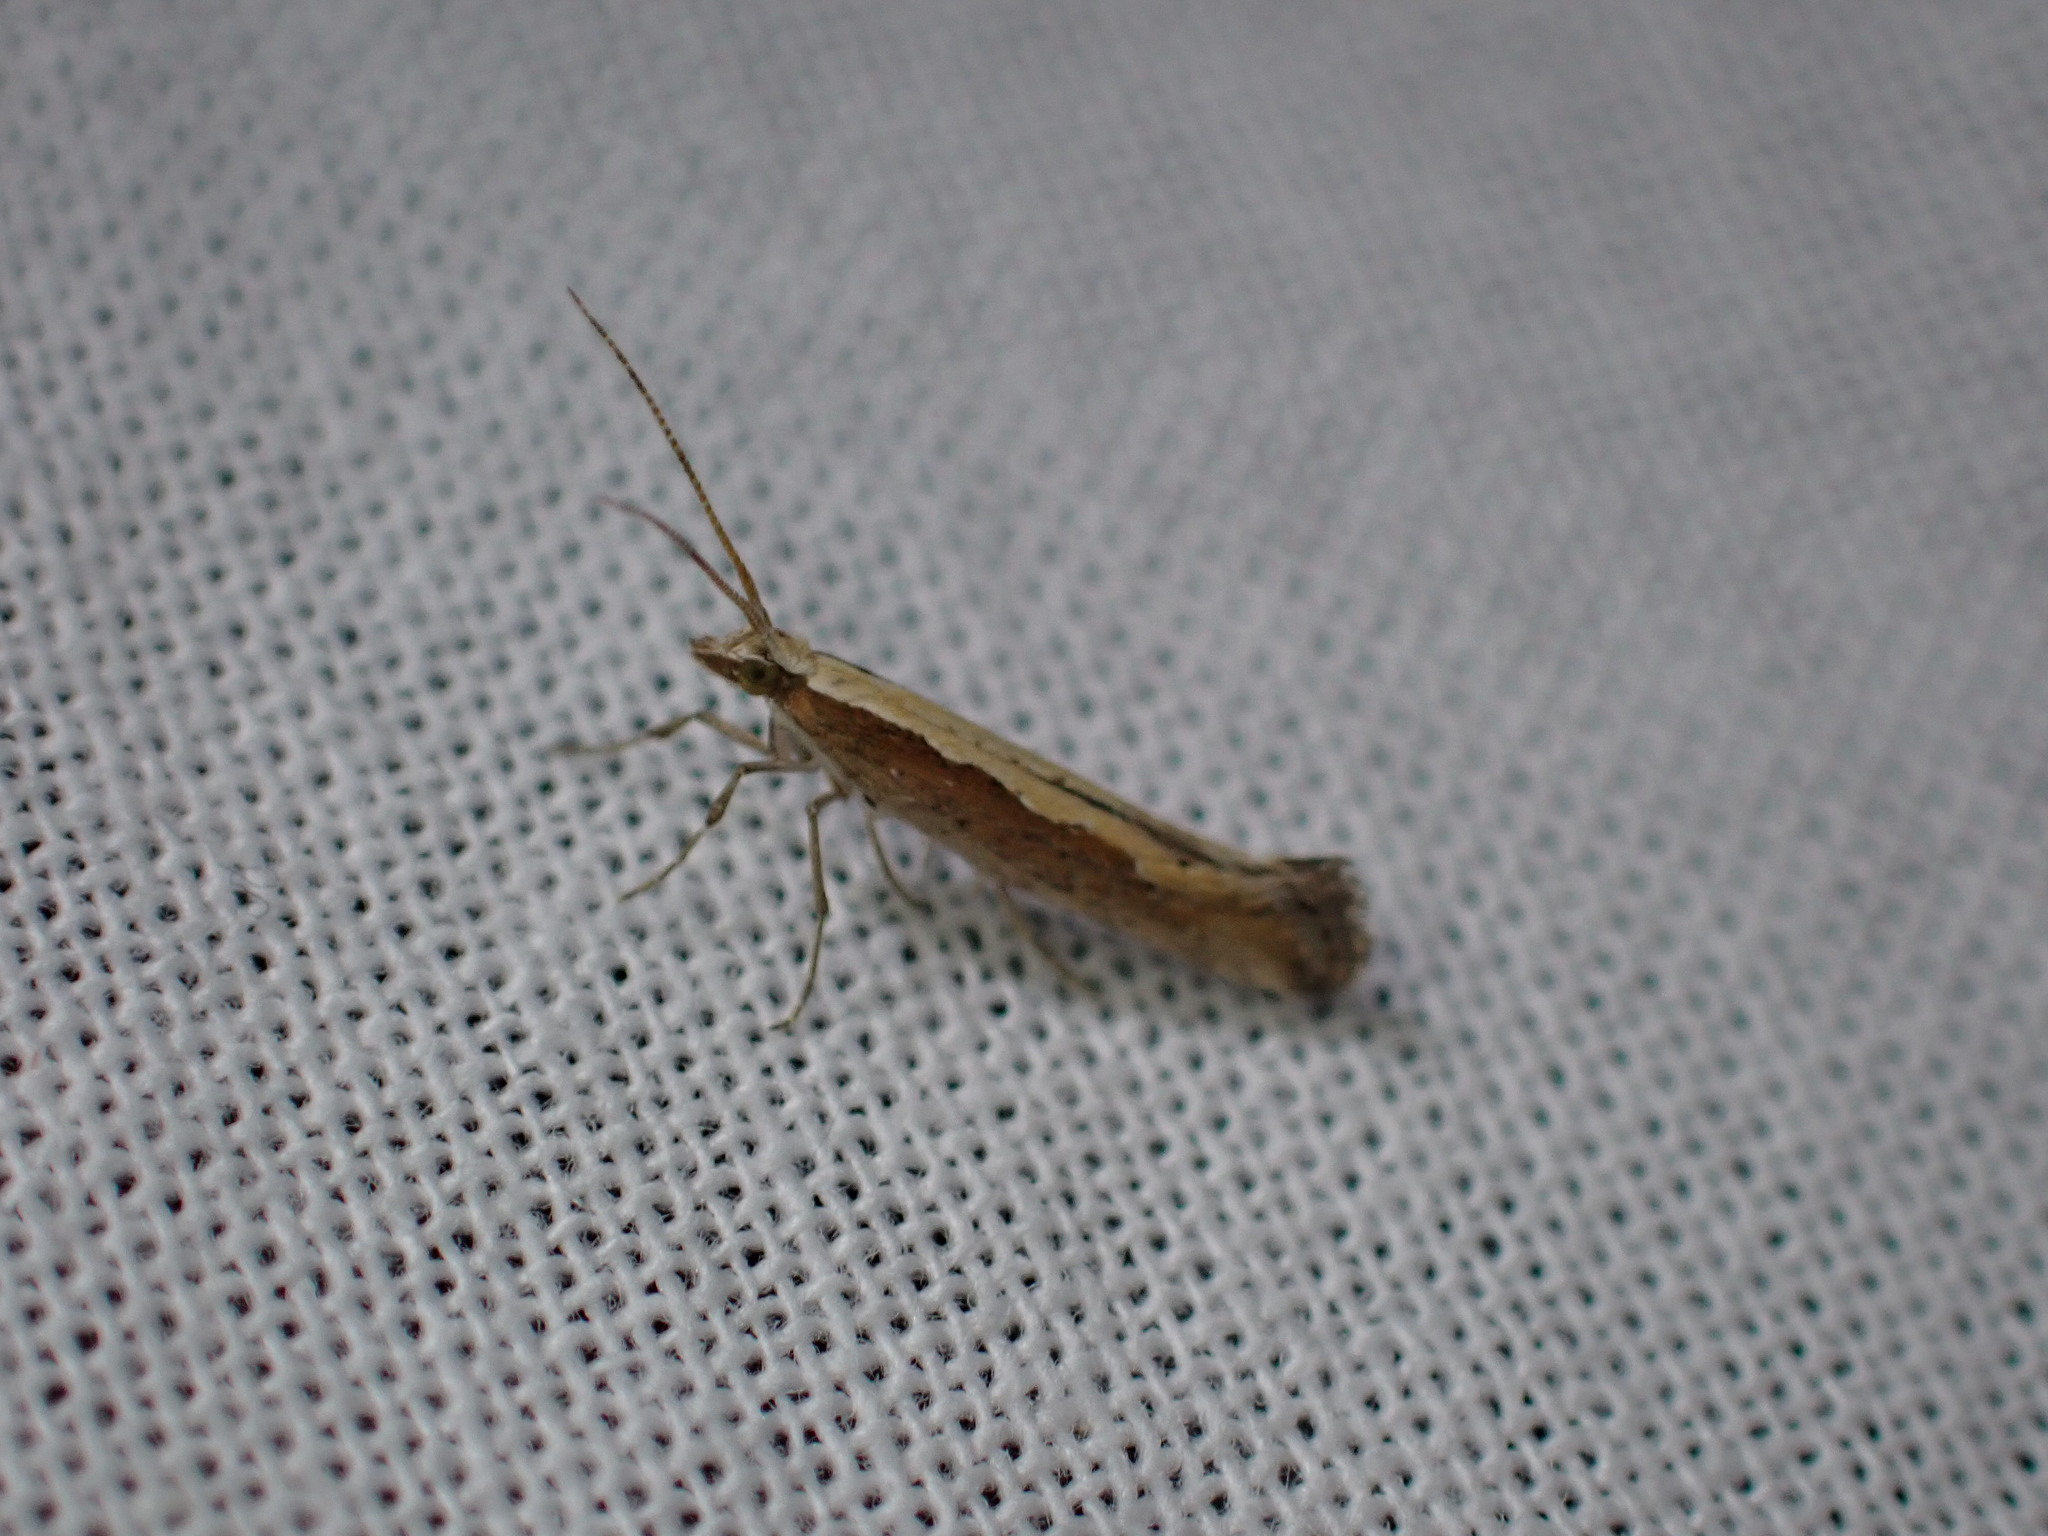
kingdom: Animalia
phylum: Arthropoda
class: Insecta
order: Lepidoptera
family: Plutellidae
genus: Plutella
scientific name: Plutella xylostella
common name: Diamond-back moth
